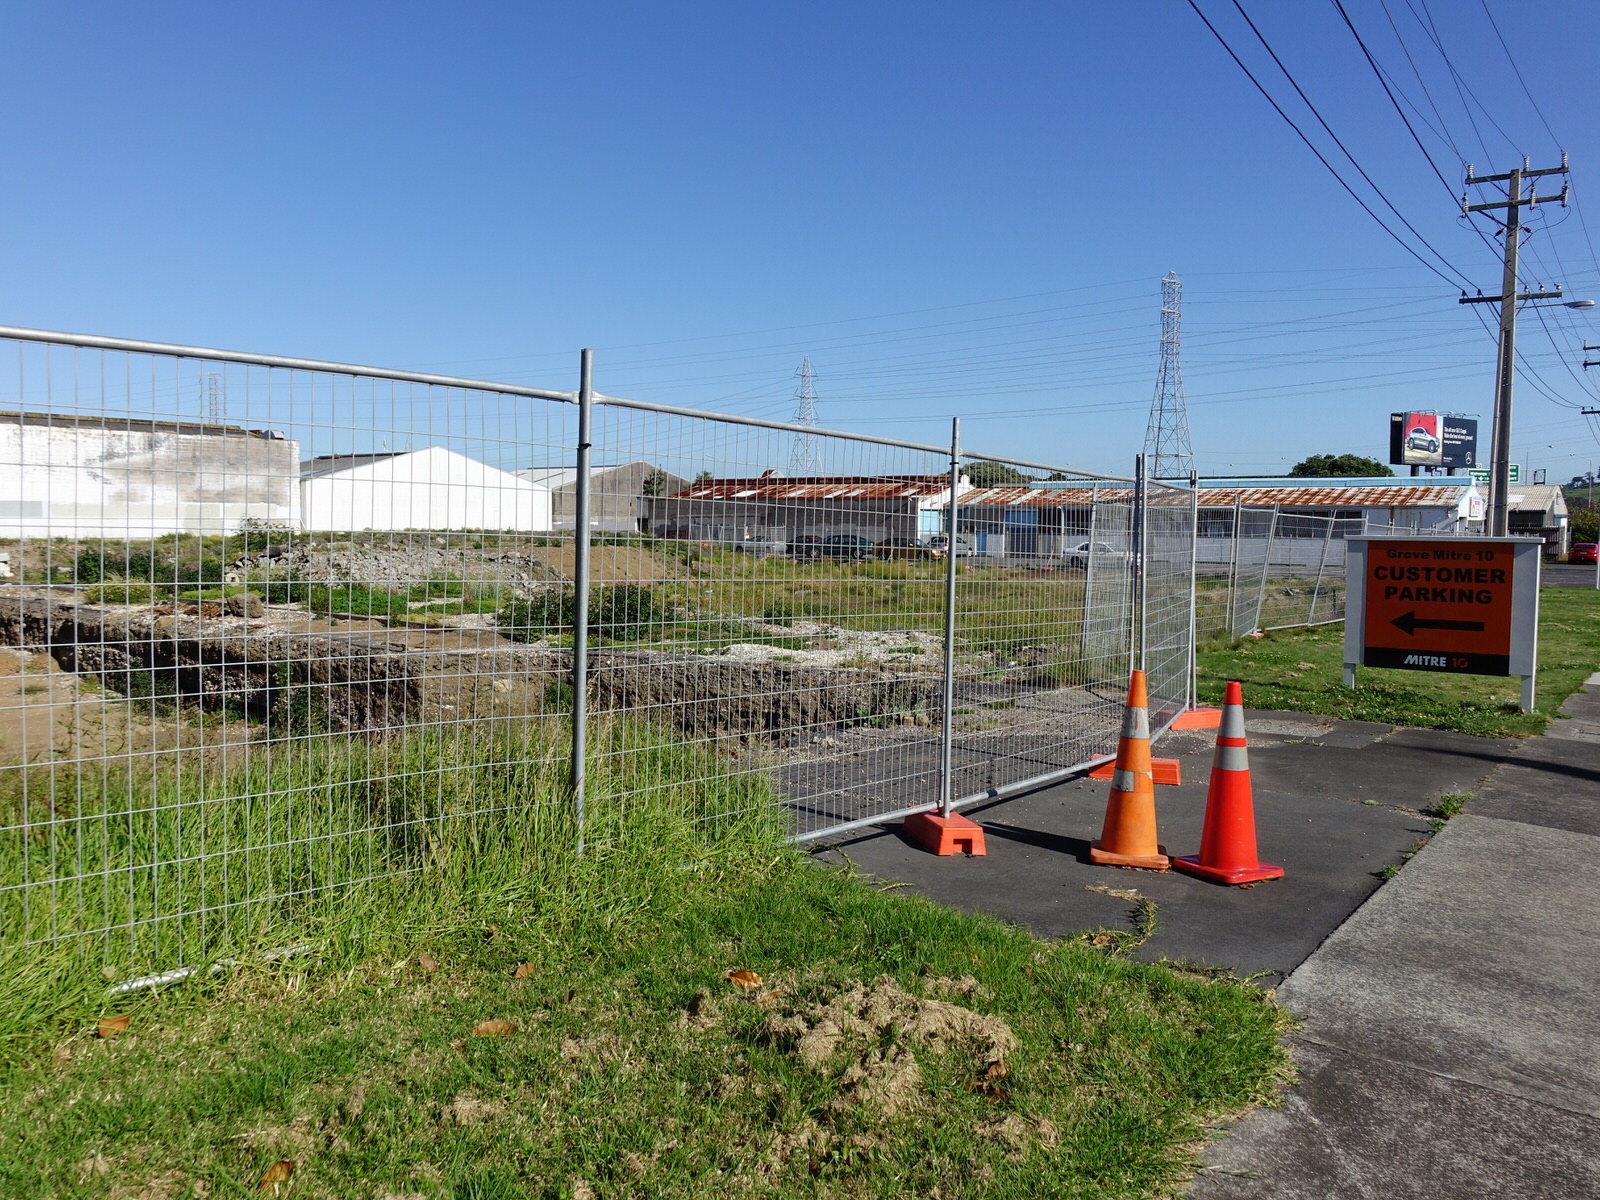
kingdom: Animalia
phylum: Chordata
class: Aves
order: Charadriiformes
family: Laridae
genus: Larus
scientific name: Larus dominicanus
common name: Kelp gull
